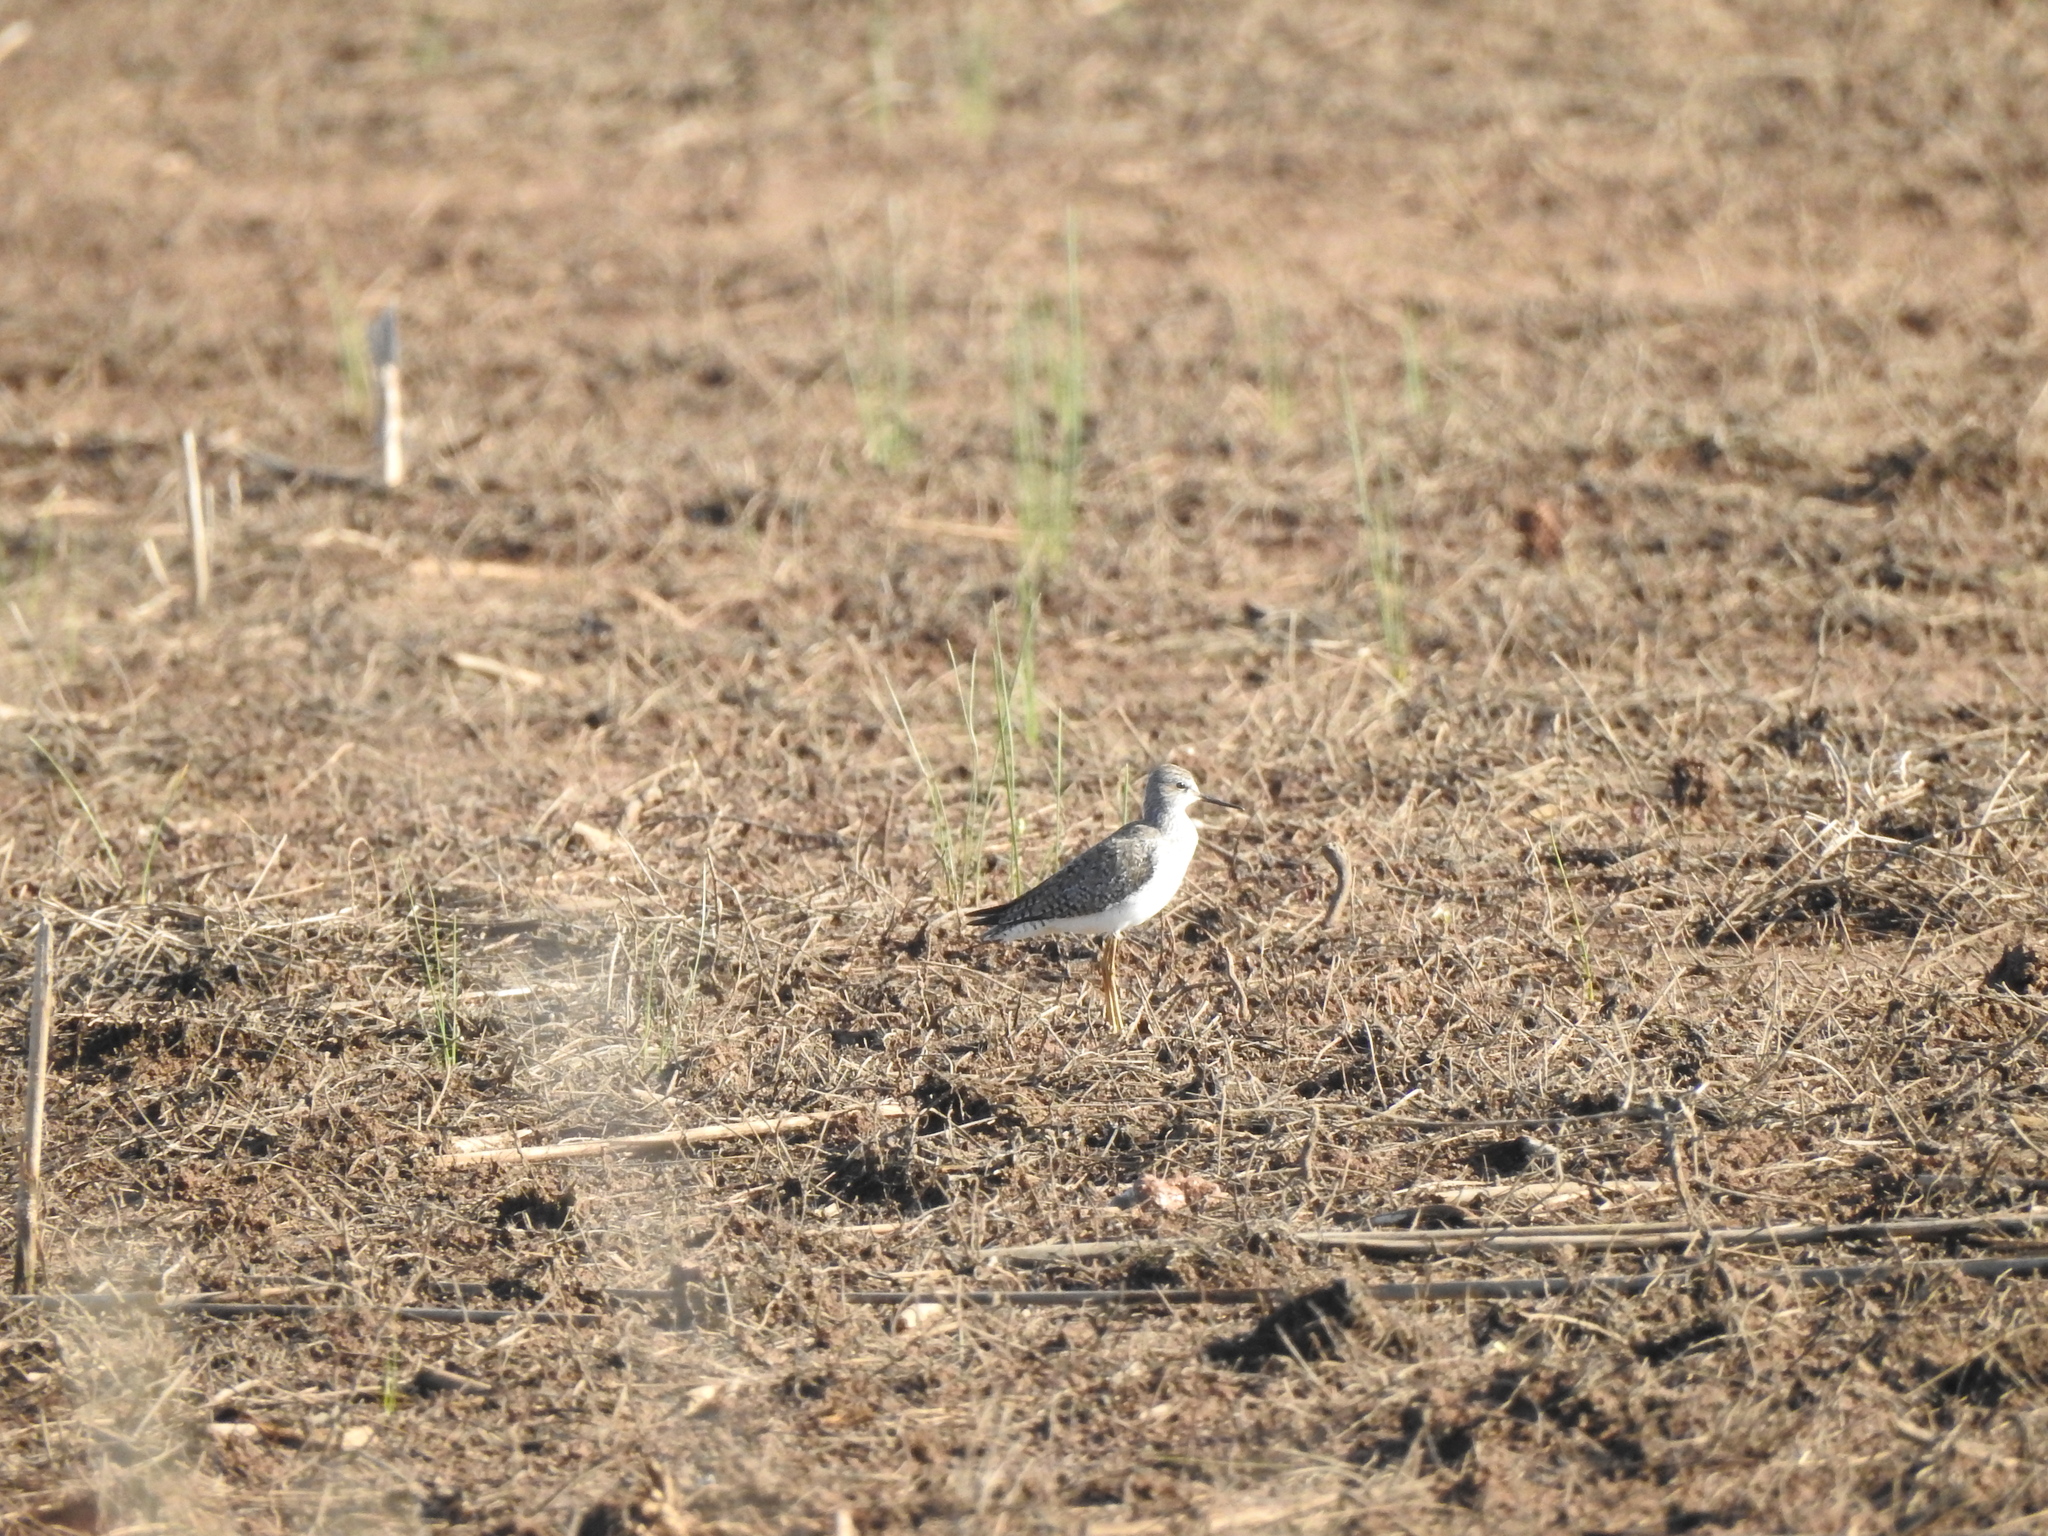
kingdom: Animalia
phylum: Chordata
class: Aves
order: Charadriiformes
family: Scolopacidae
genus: Tringa
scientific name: Tringa flavipes
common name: Lesser yellowlegs
